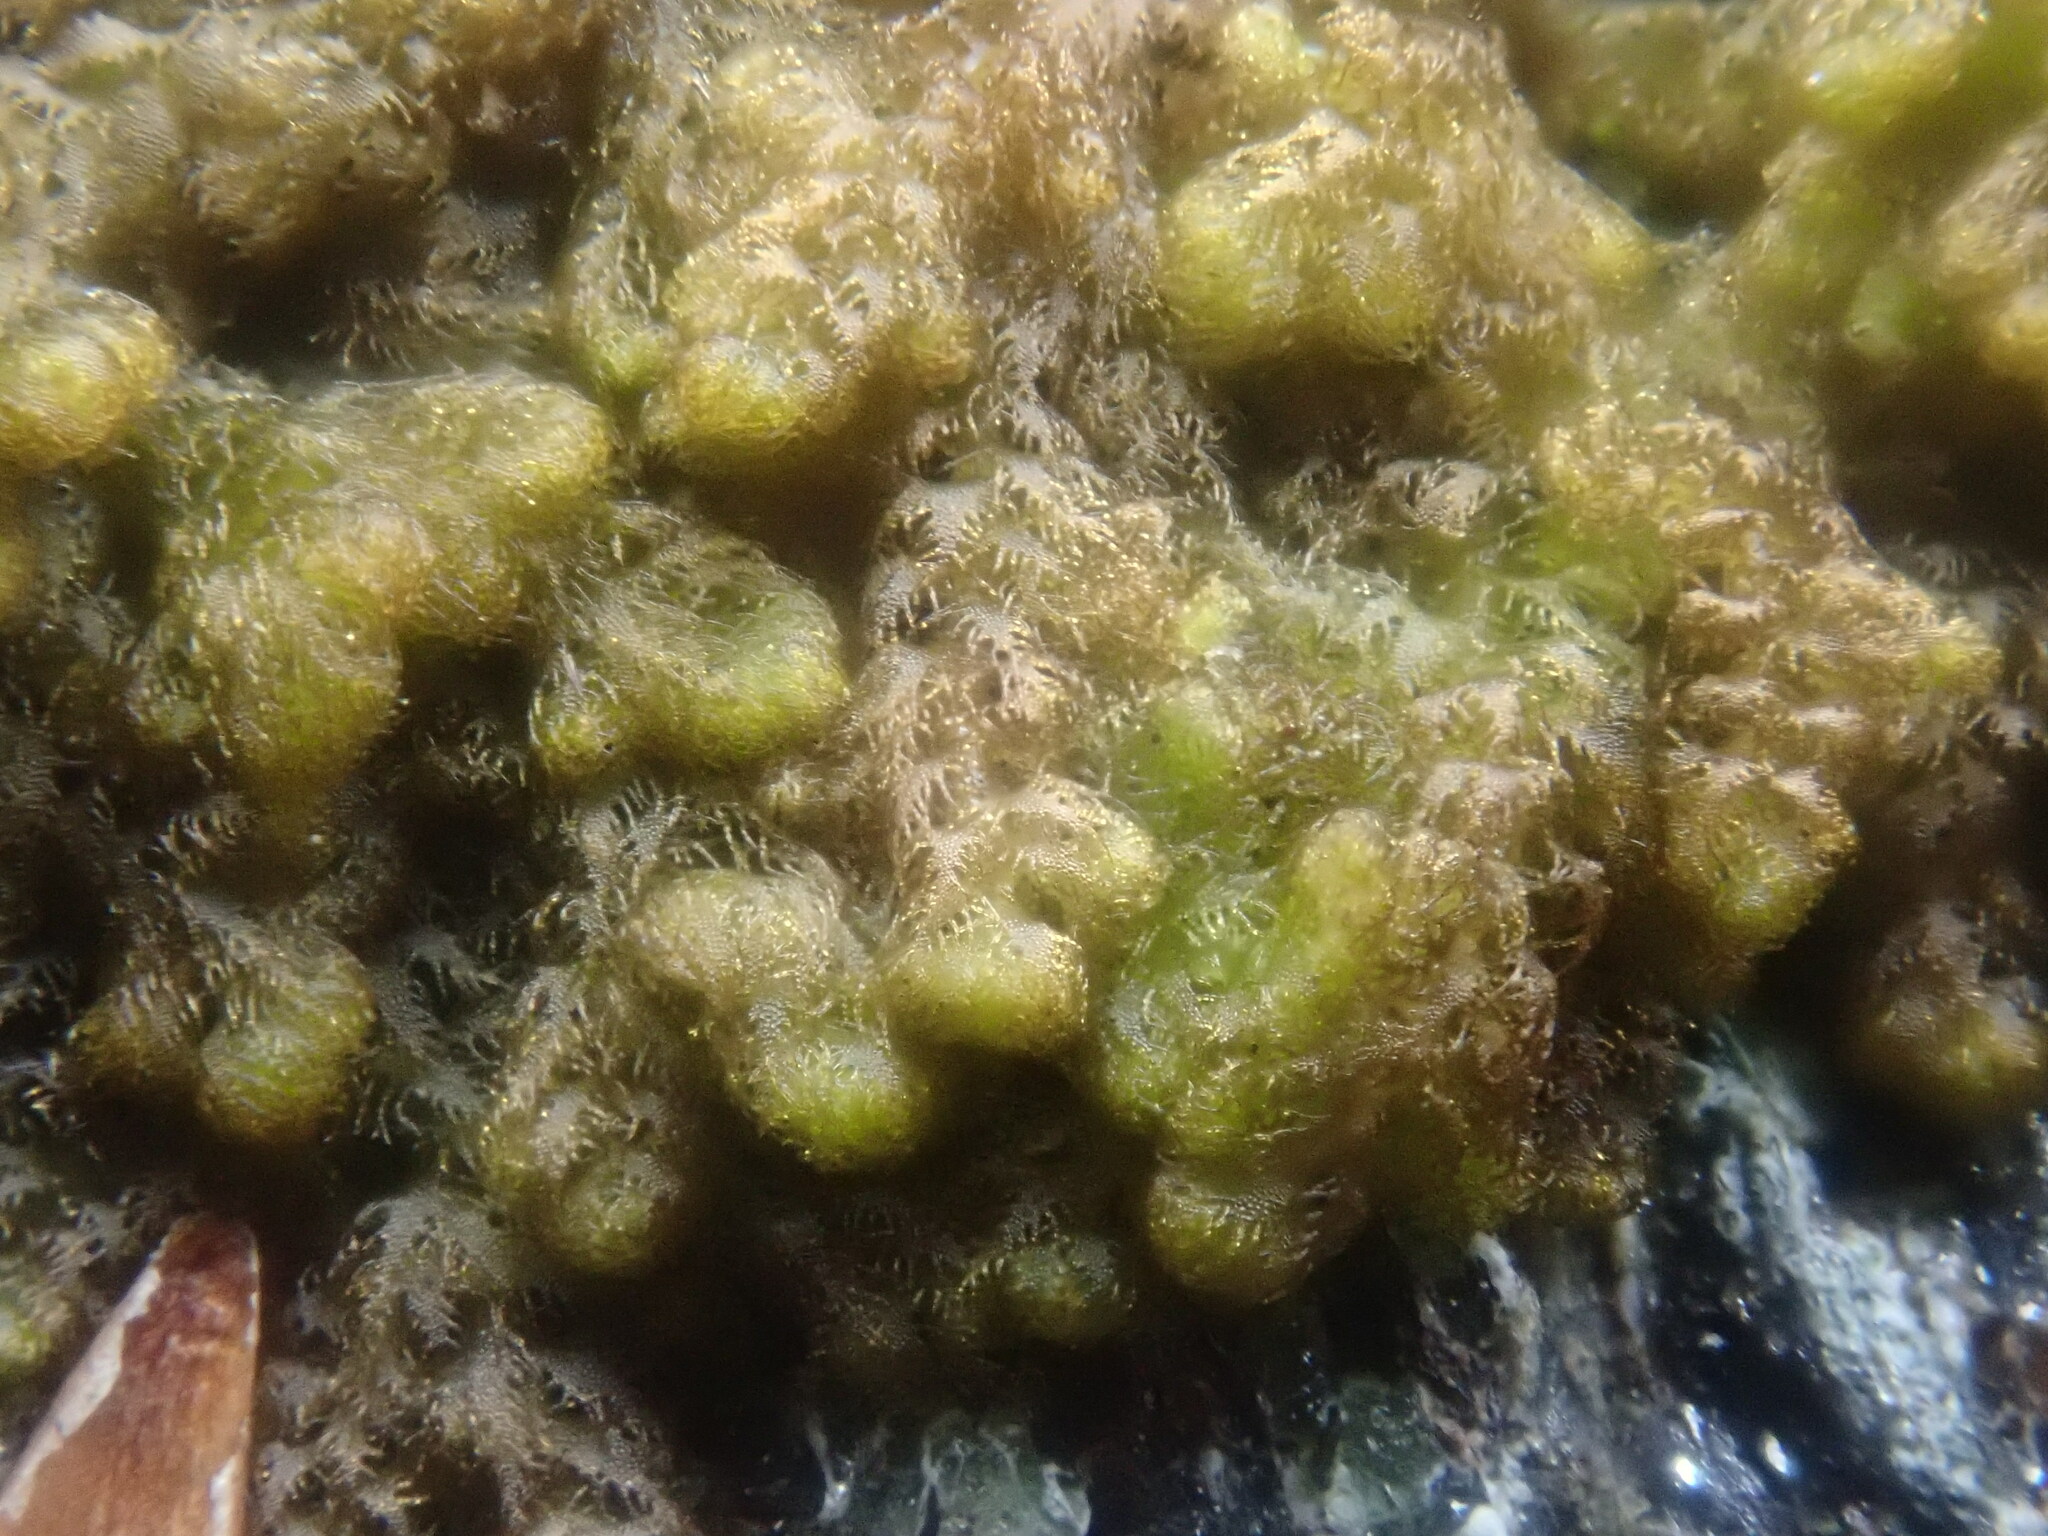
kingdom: Plantae
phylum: Marchantiophyta
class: Jungermanniopsida
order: Ptilidiales
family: Ptilidiaceae
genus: Ptilidium
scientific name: Ptilidium pulcherrimum
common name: Tree fringewort
